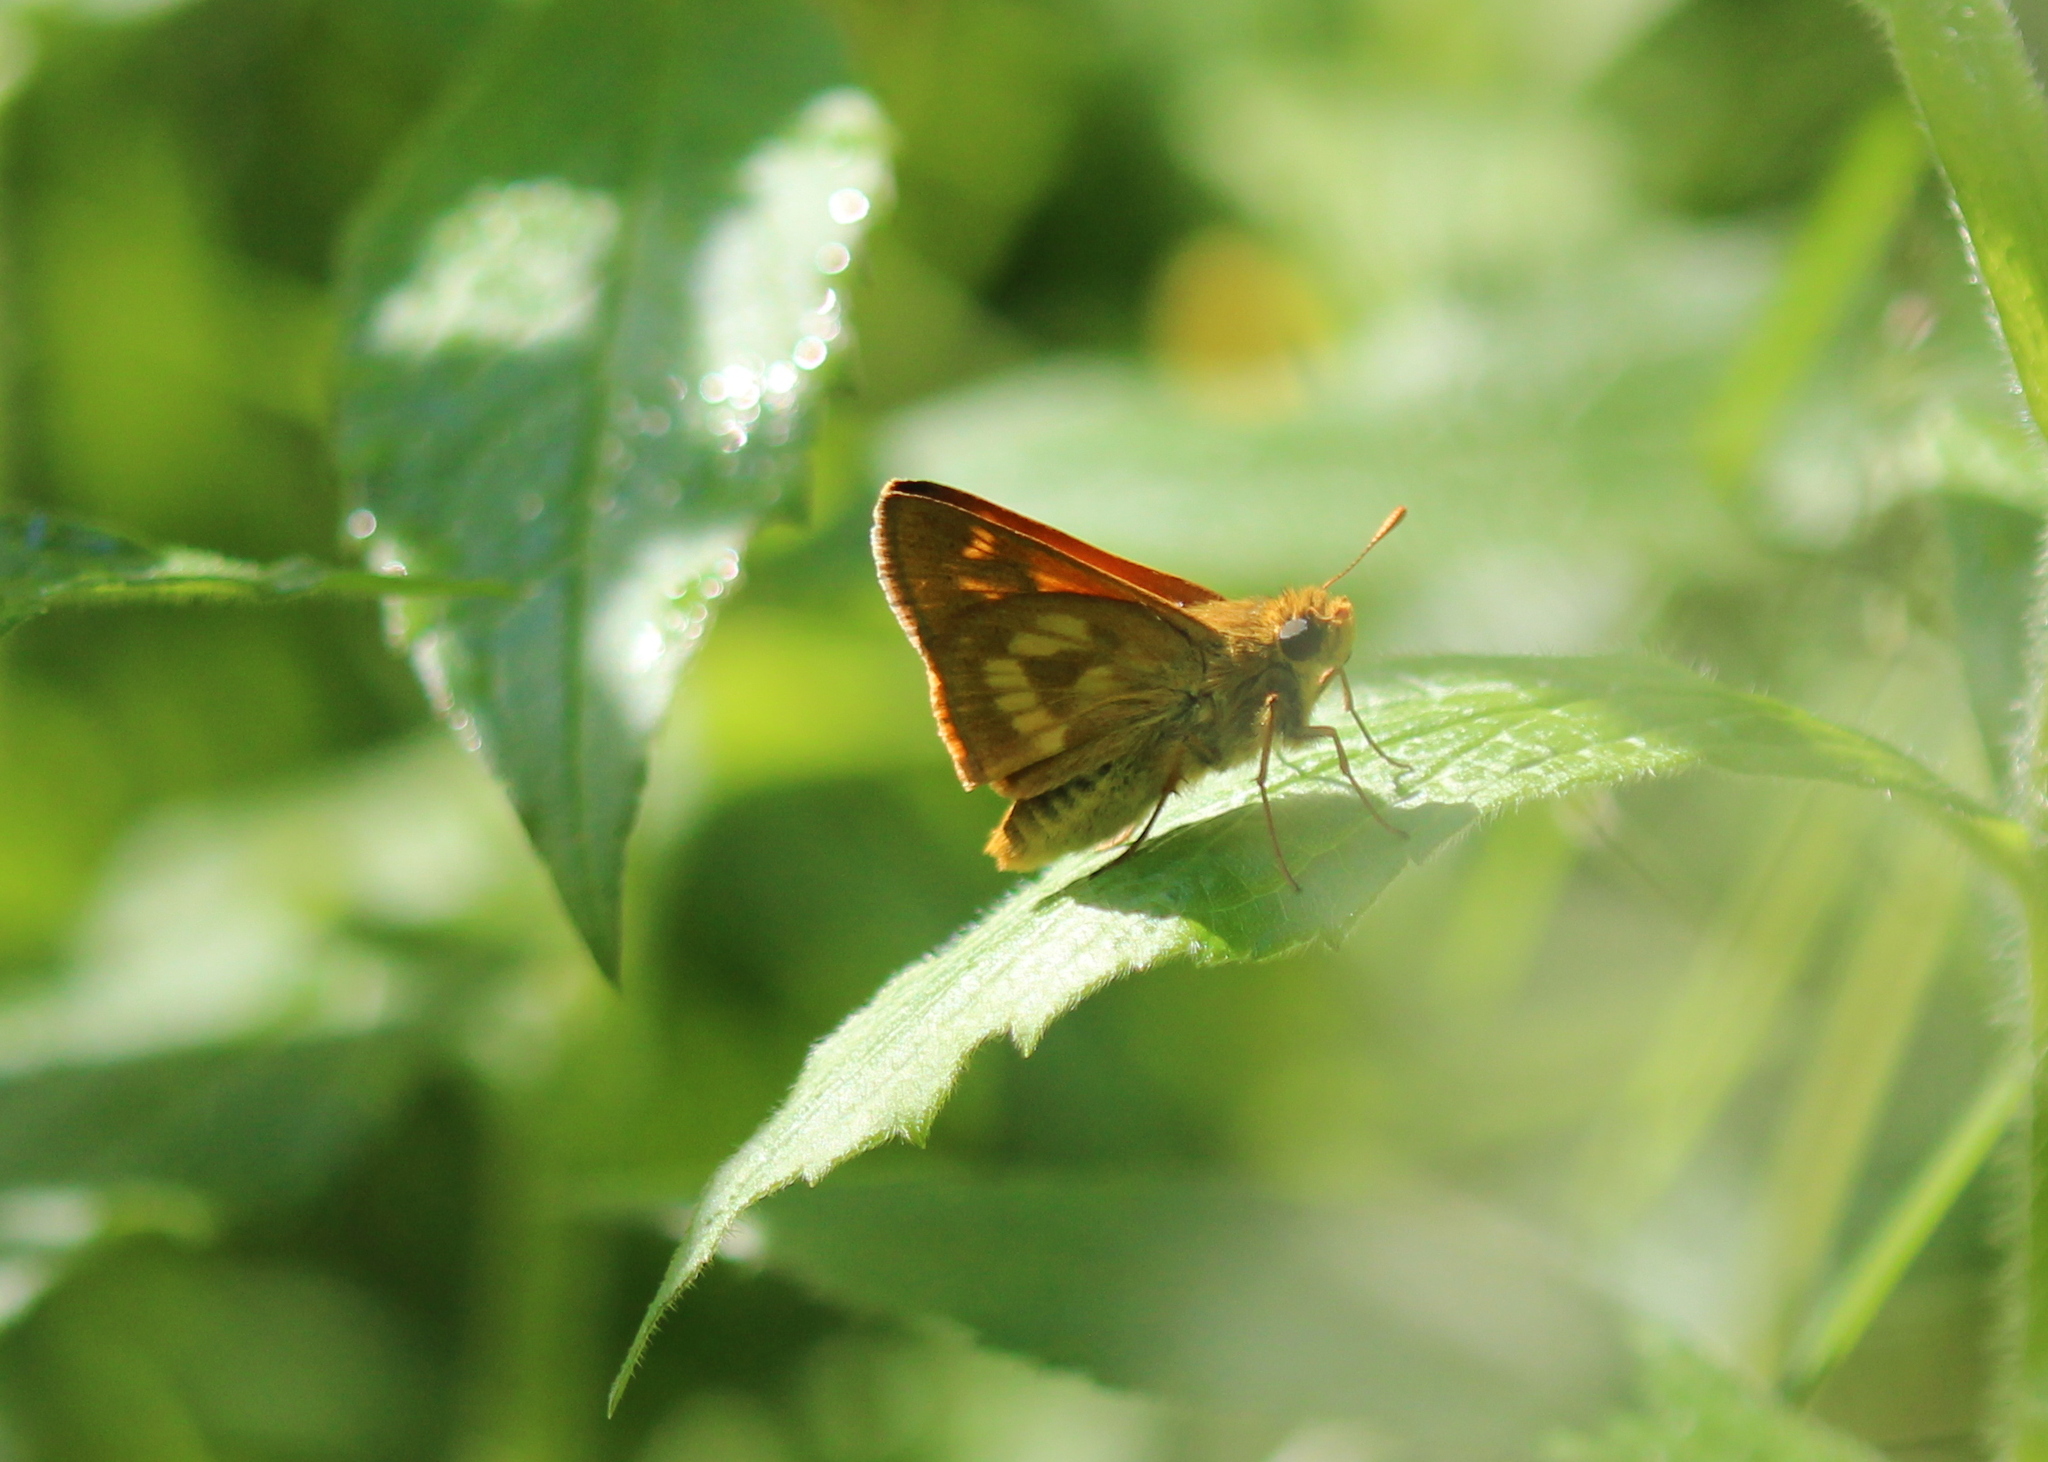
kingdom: Animalia
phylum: Arthropoda
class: Insecta
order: Lepidoptera
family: Hesperiidae
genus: Polites
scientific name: Polites mystic
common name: Long dash
